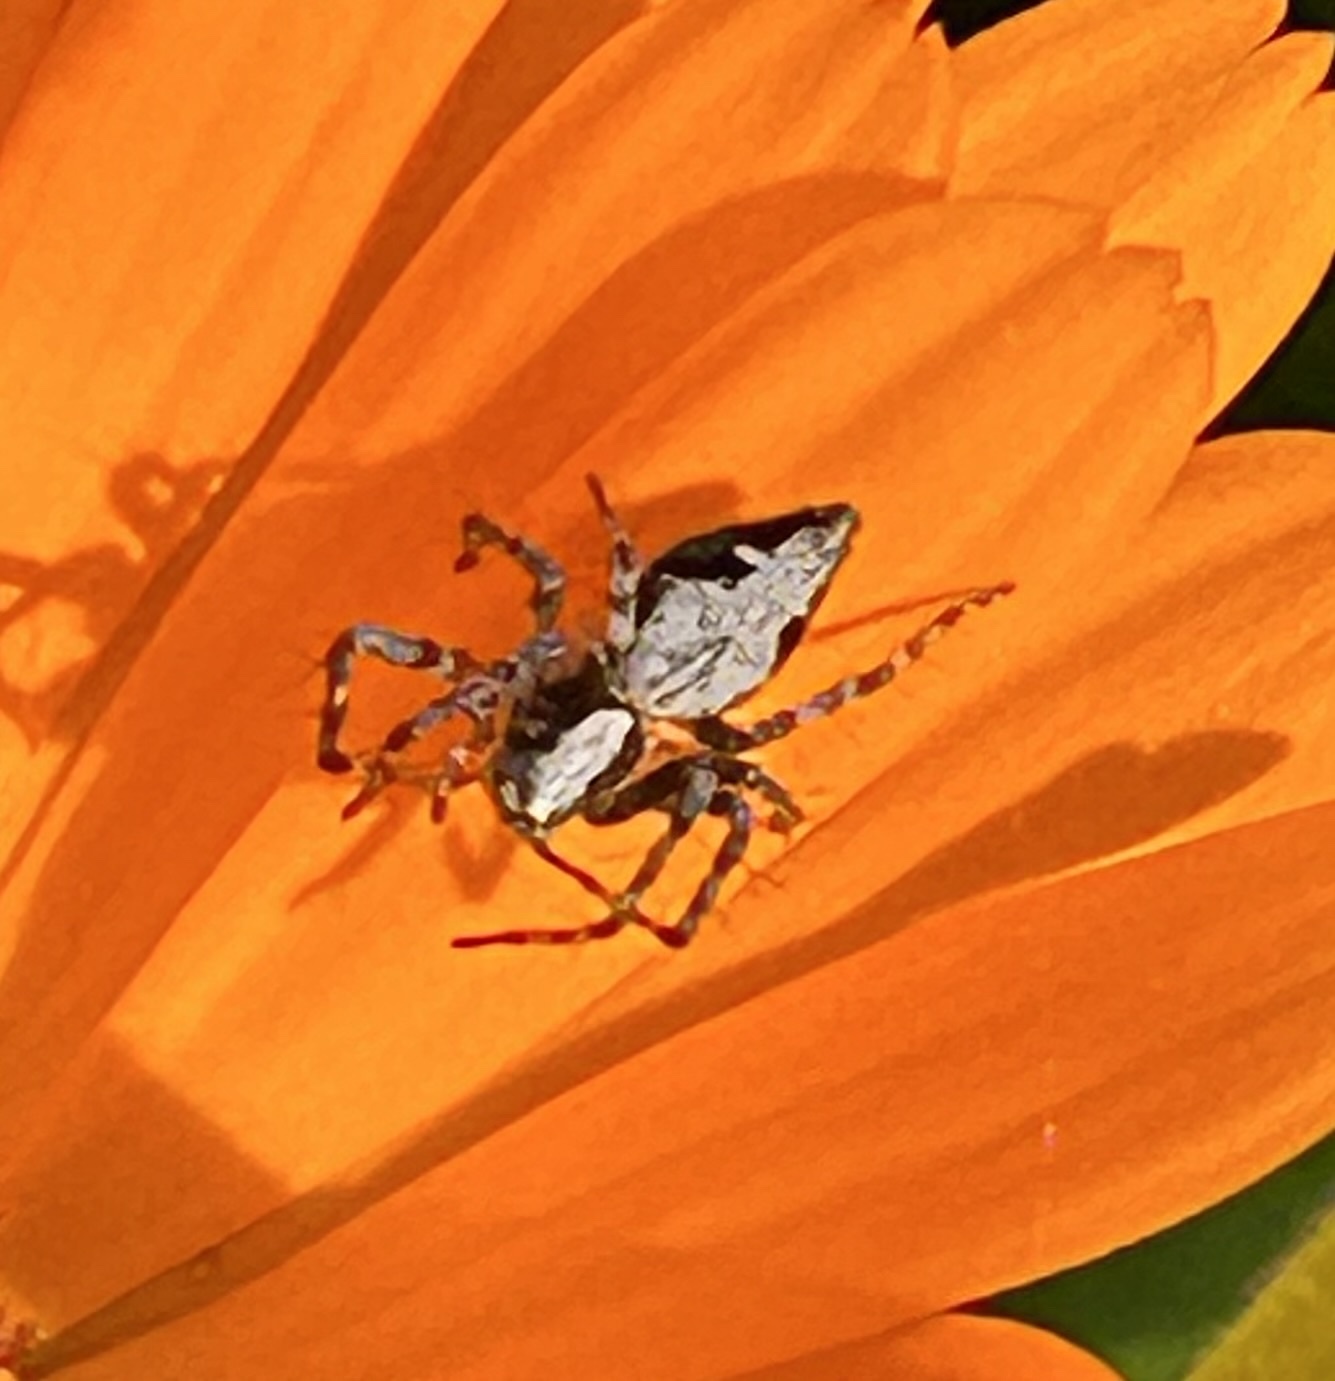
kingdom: Animalia
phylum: Arthropoda
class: Arachnida
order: Araneae
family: Oxyopidae
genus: Oxyopes
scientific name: Oxyopes scalaris
